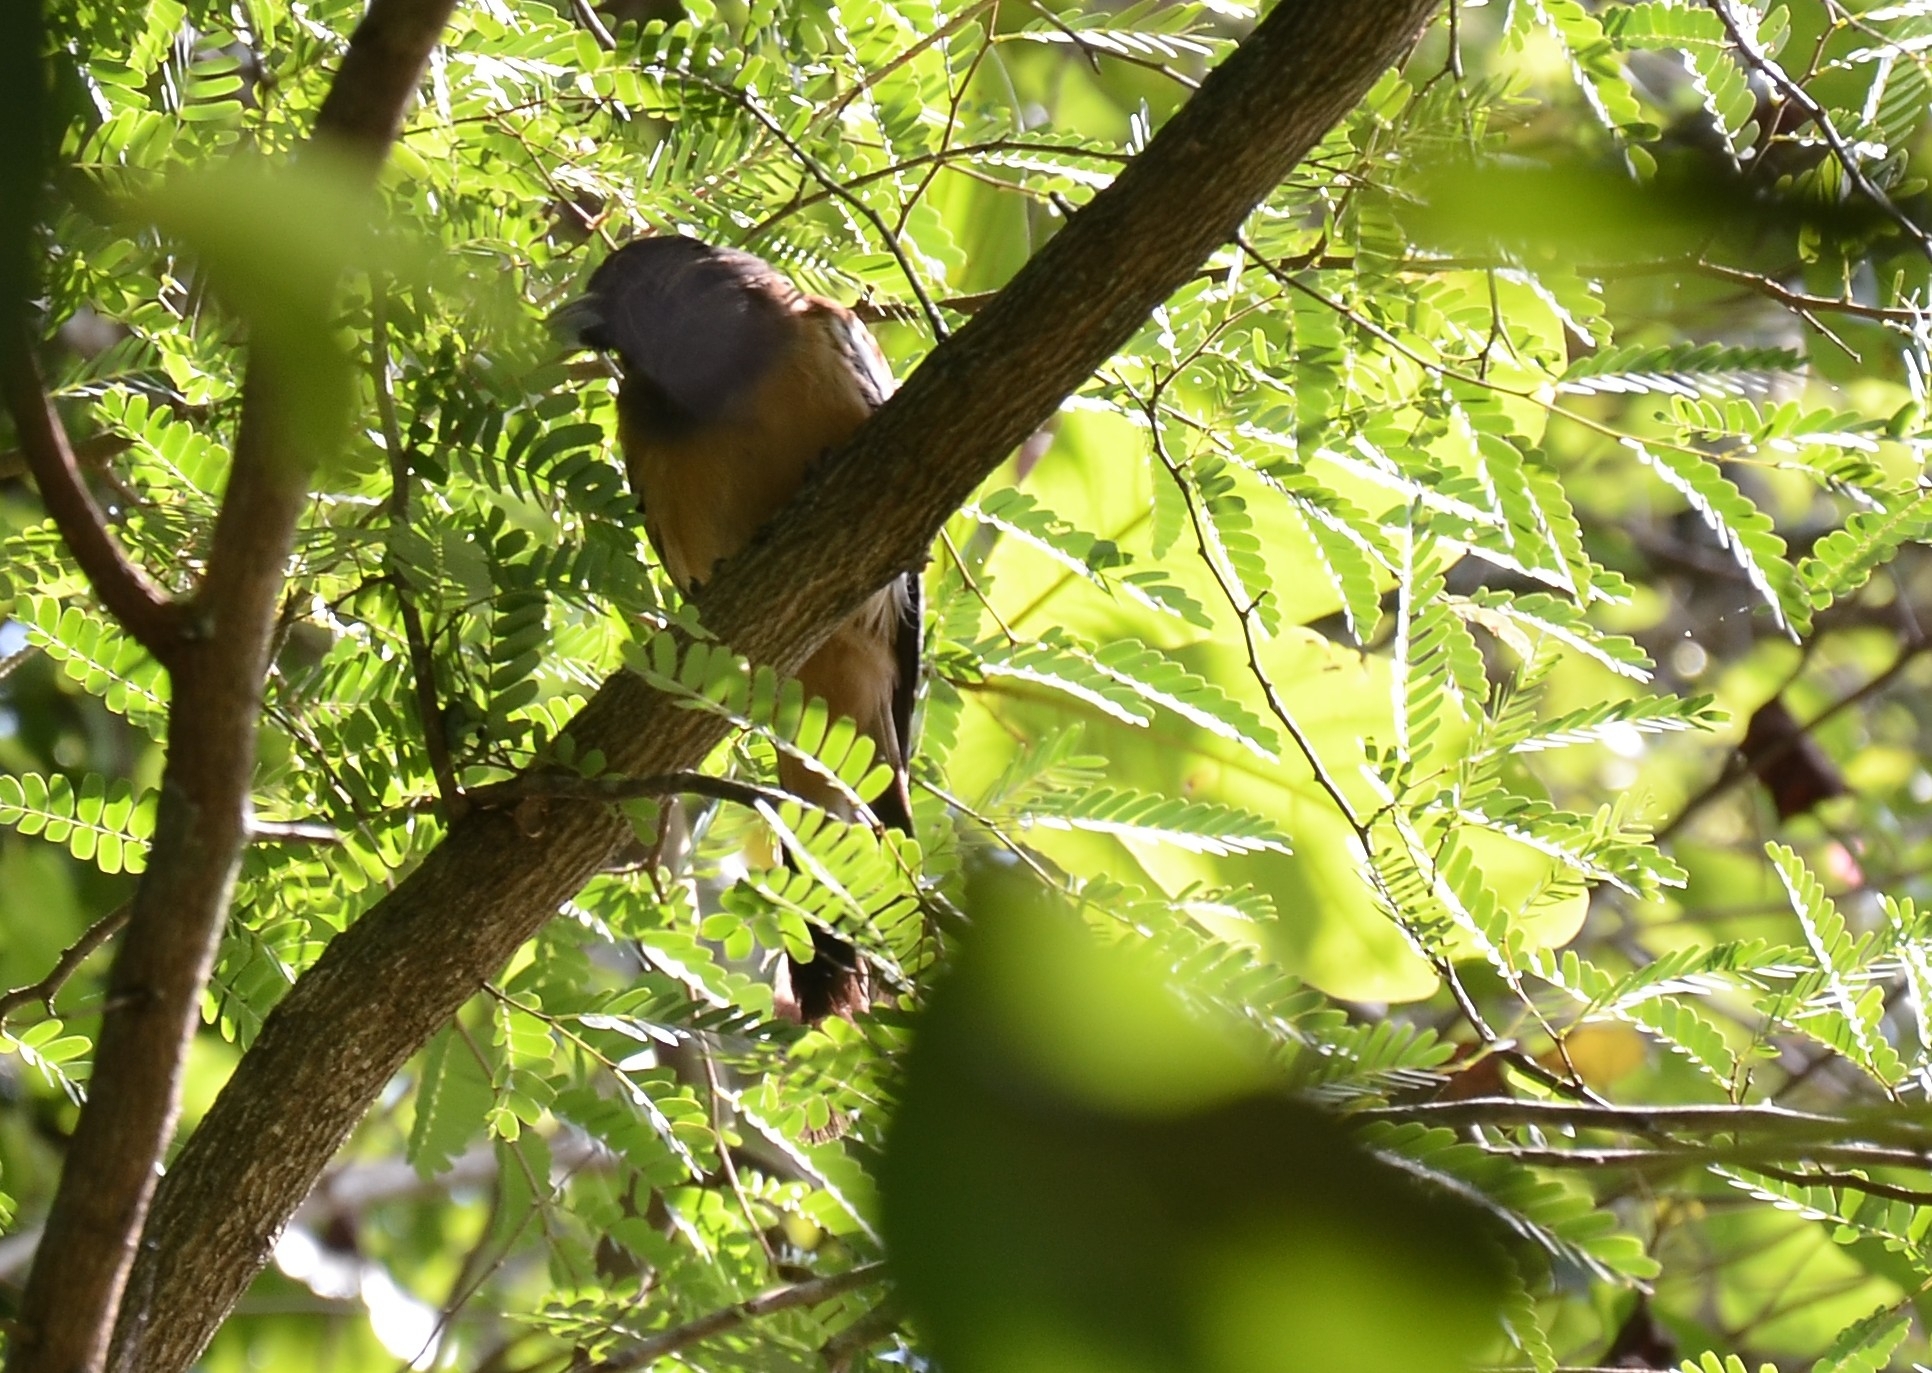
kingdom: Animalia
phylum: Chordata
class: Aves
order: Passeriformes
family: Corvidae
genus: Dendrocitta
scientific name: Dendrocitta vagabunda
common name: Rufous treepie
